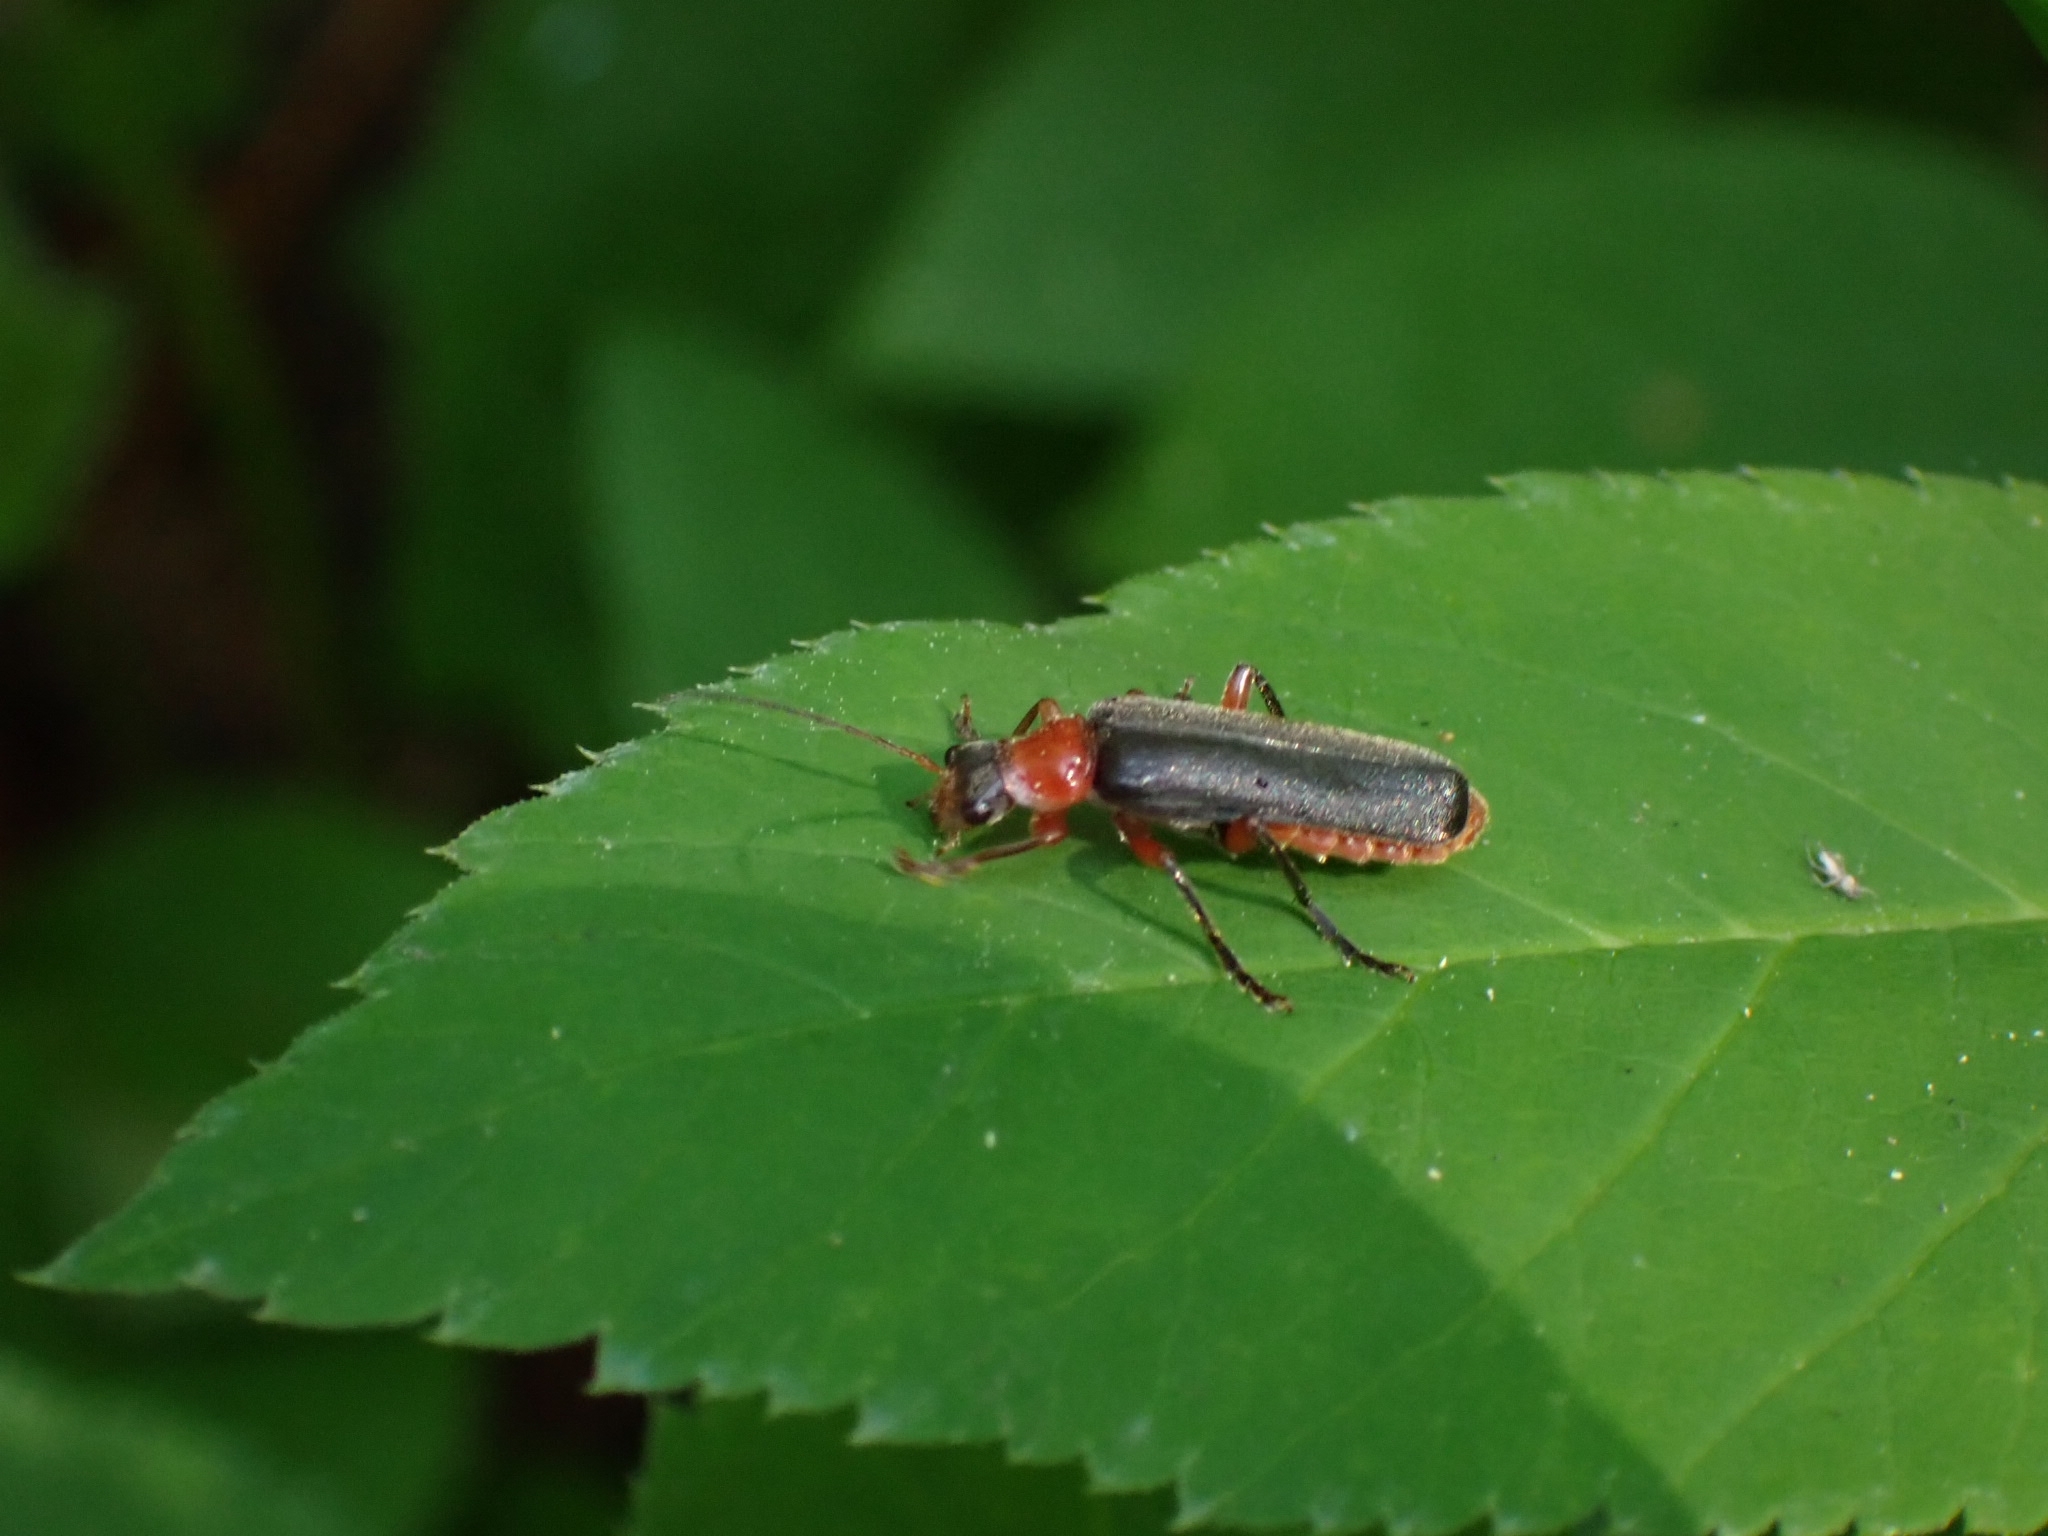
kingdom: Animalia
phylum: Arthropoda
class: Insecta
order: Coleoptera
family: Cantharidae
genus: Cantharis
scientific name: Cantharis pellucida
